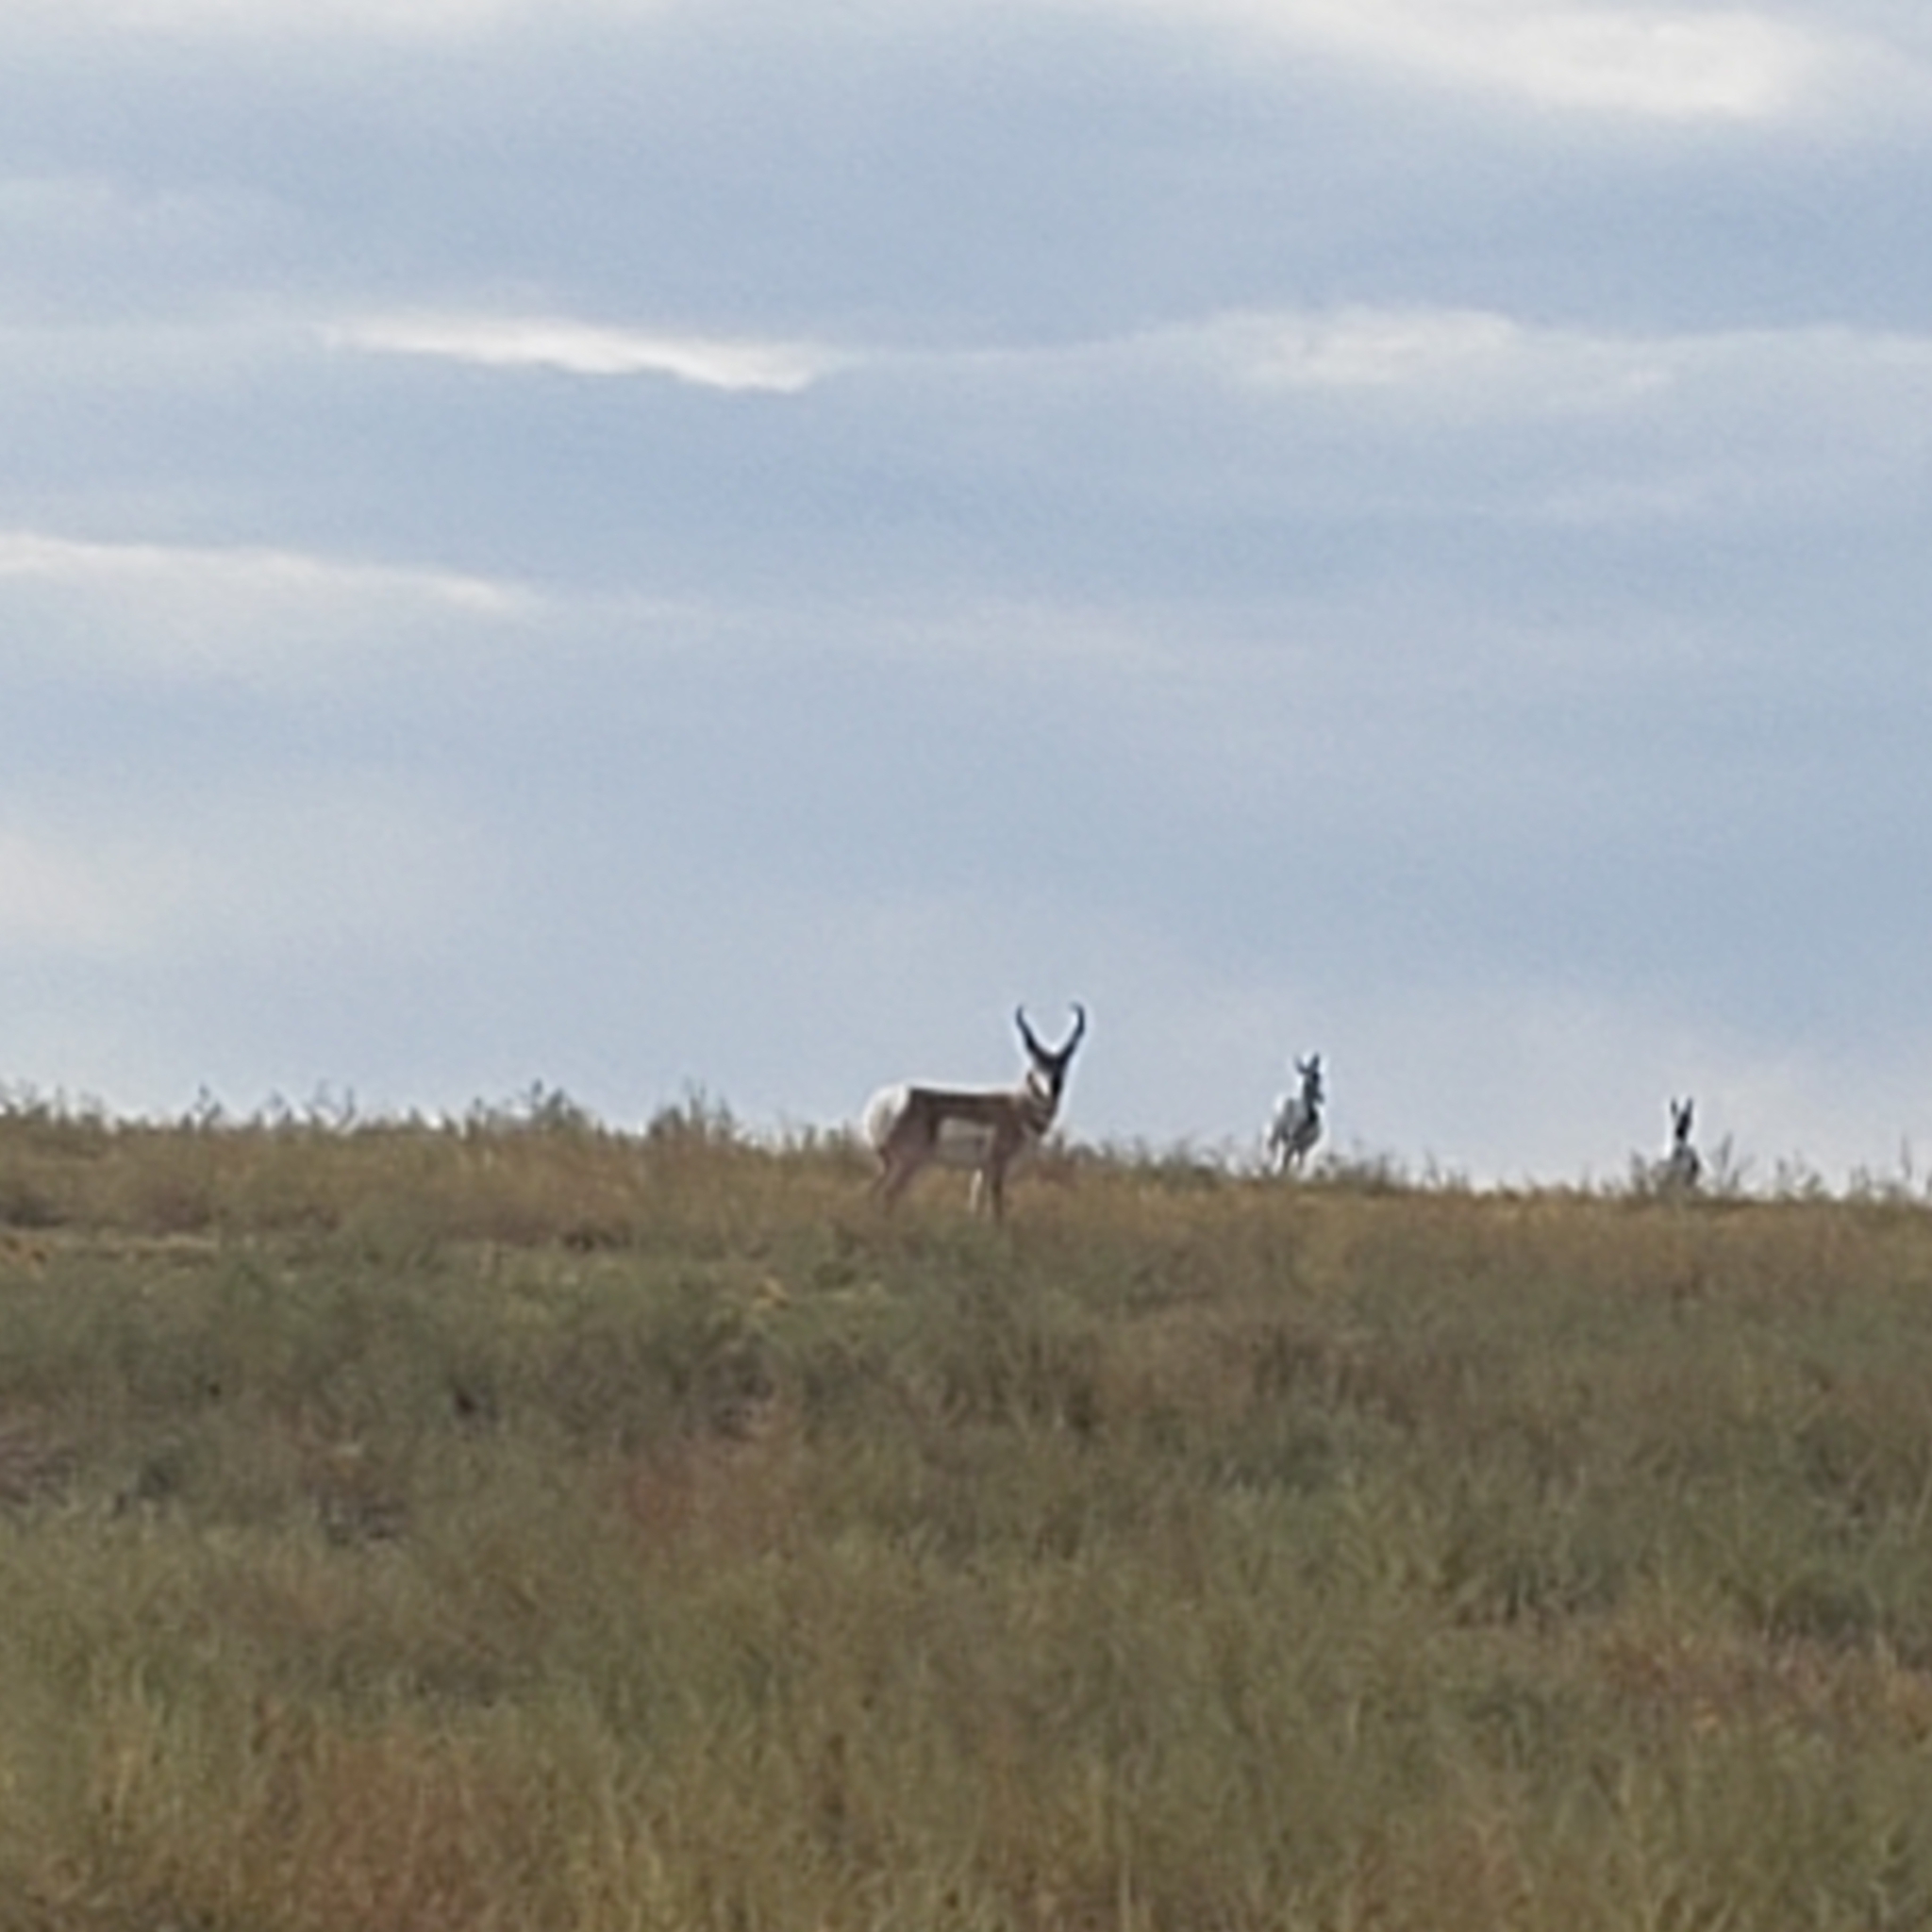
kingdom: Animalia
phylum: Chordata
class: Mammalia
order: Artiodactyla
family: Antilocapridae
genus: Antilocapra
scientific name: Antilocapra americana
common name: Pronghorn
